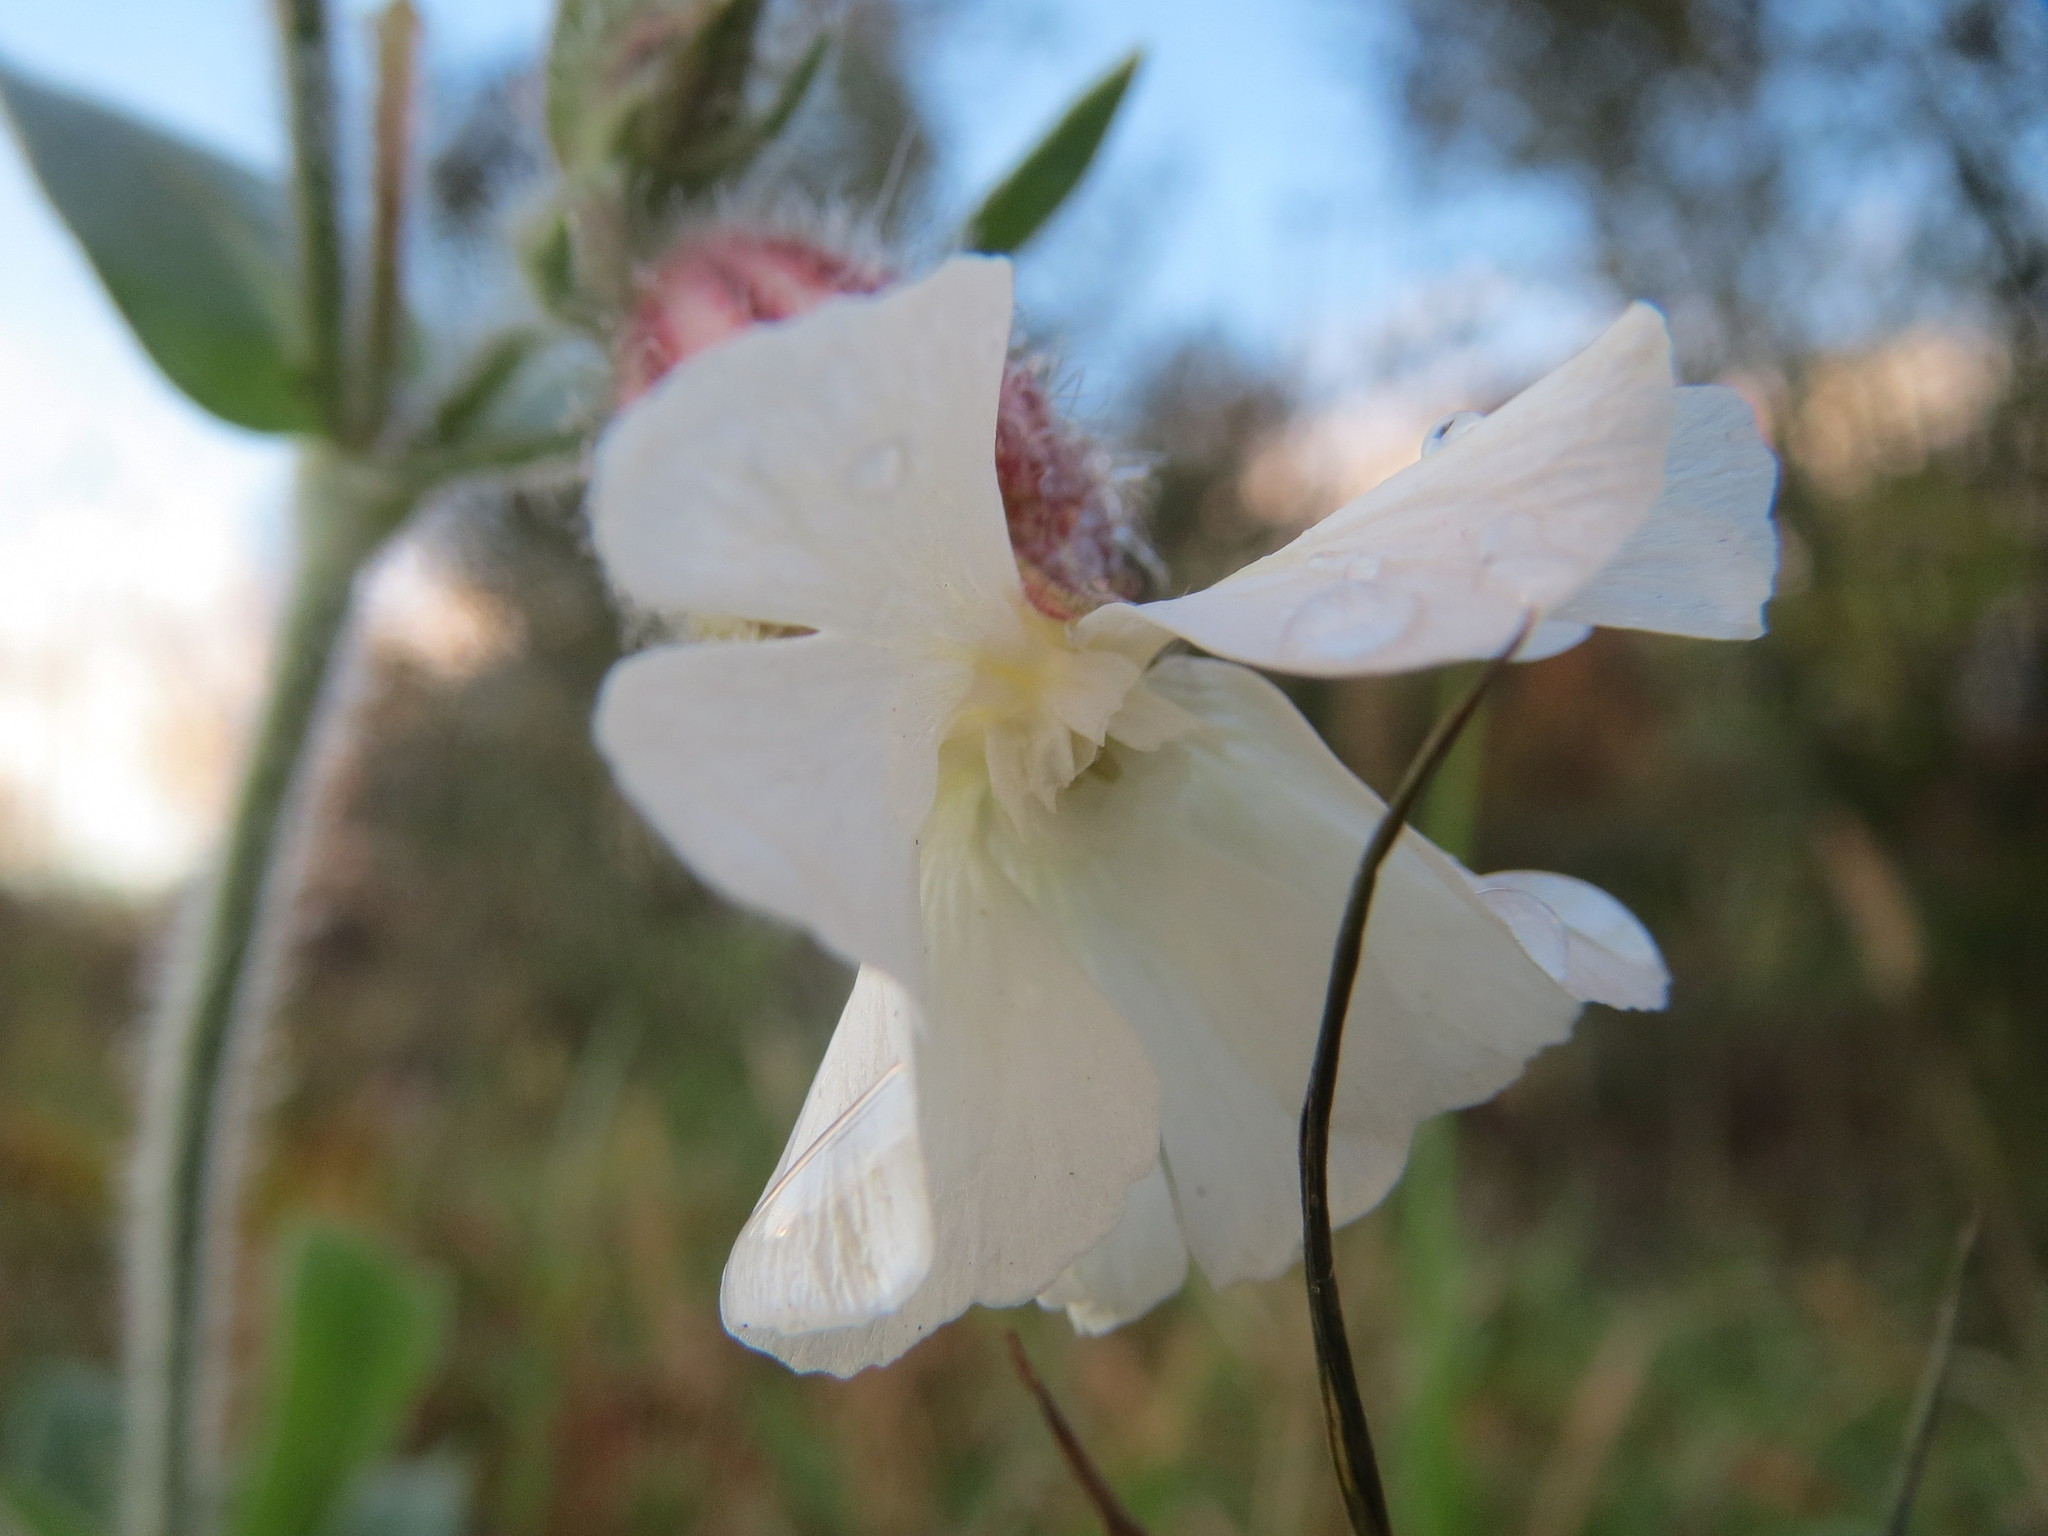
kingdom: Plantae
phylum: Tracheophyta
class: Magnoliopsida
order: Caryophyllales
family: Caryophyllaceae
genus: Silene
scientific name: Silene latifolia
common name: White campion
